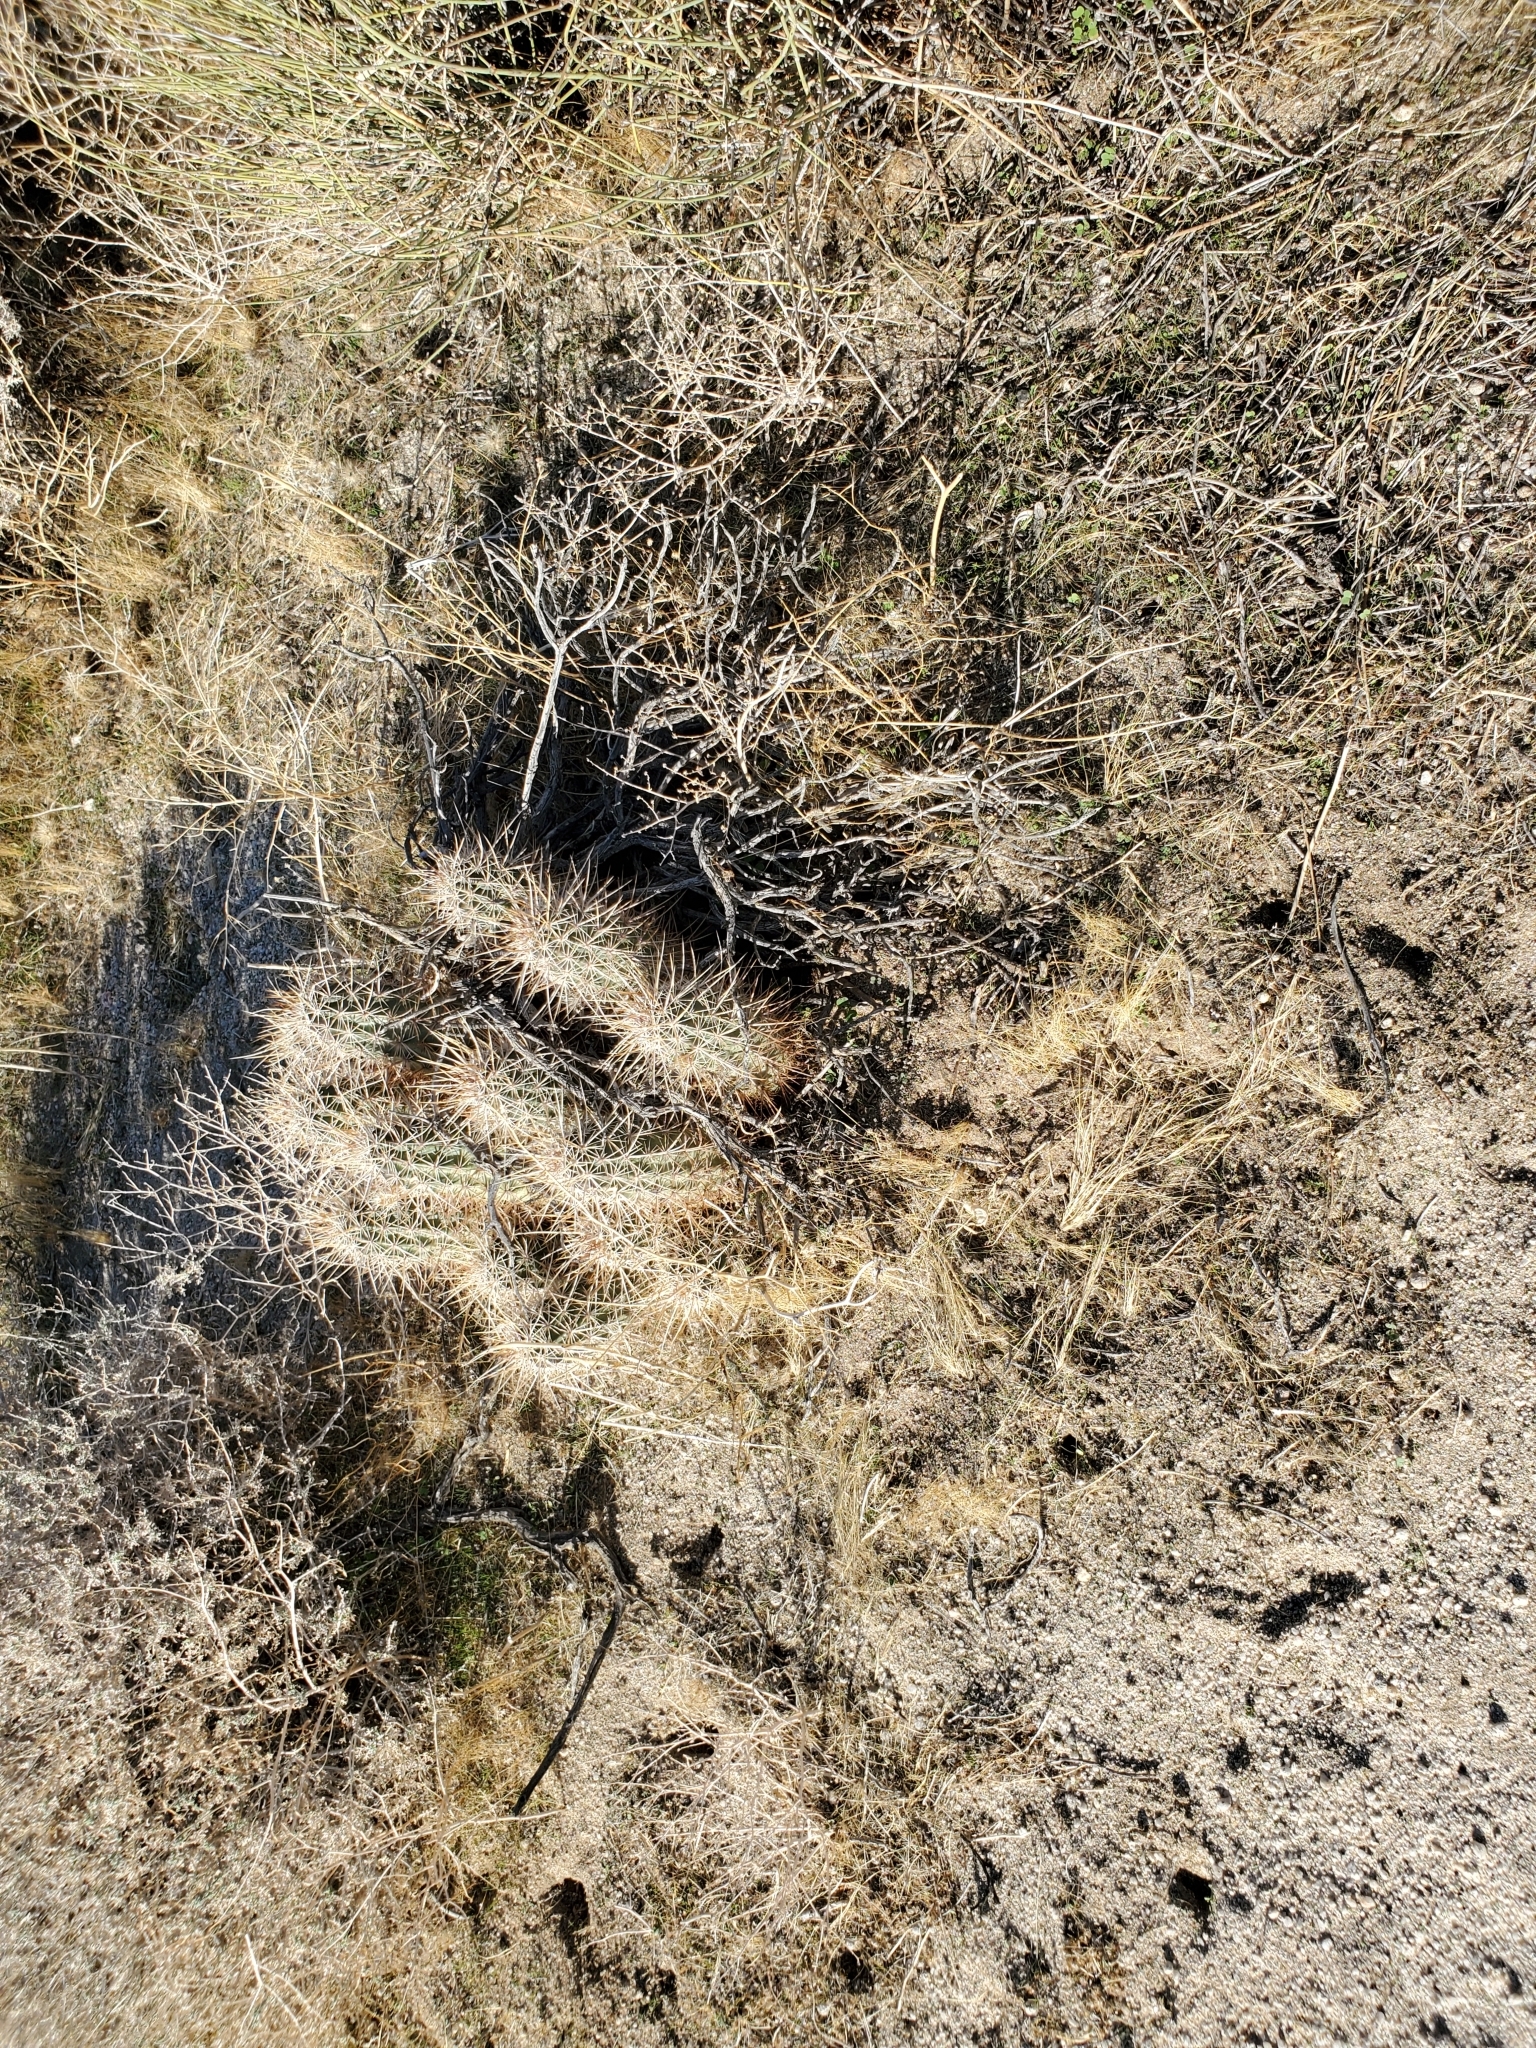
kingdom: Plantae
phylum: Tracheophyta
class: Magnoliopsida
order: Caryophyllales
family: Cactaceae
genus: Echinocereus
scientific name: Echinocereus engelmannii
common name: Engelmann's hedgehog cactus
